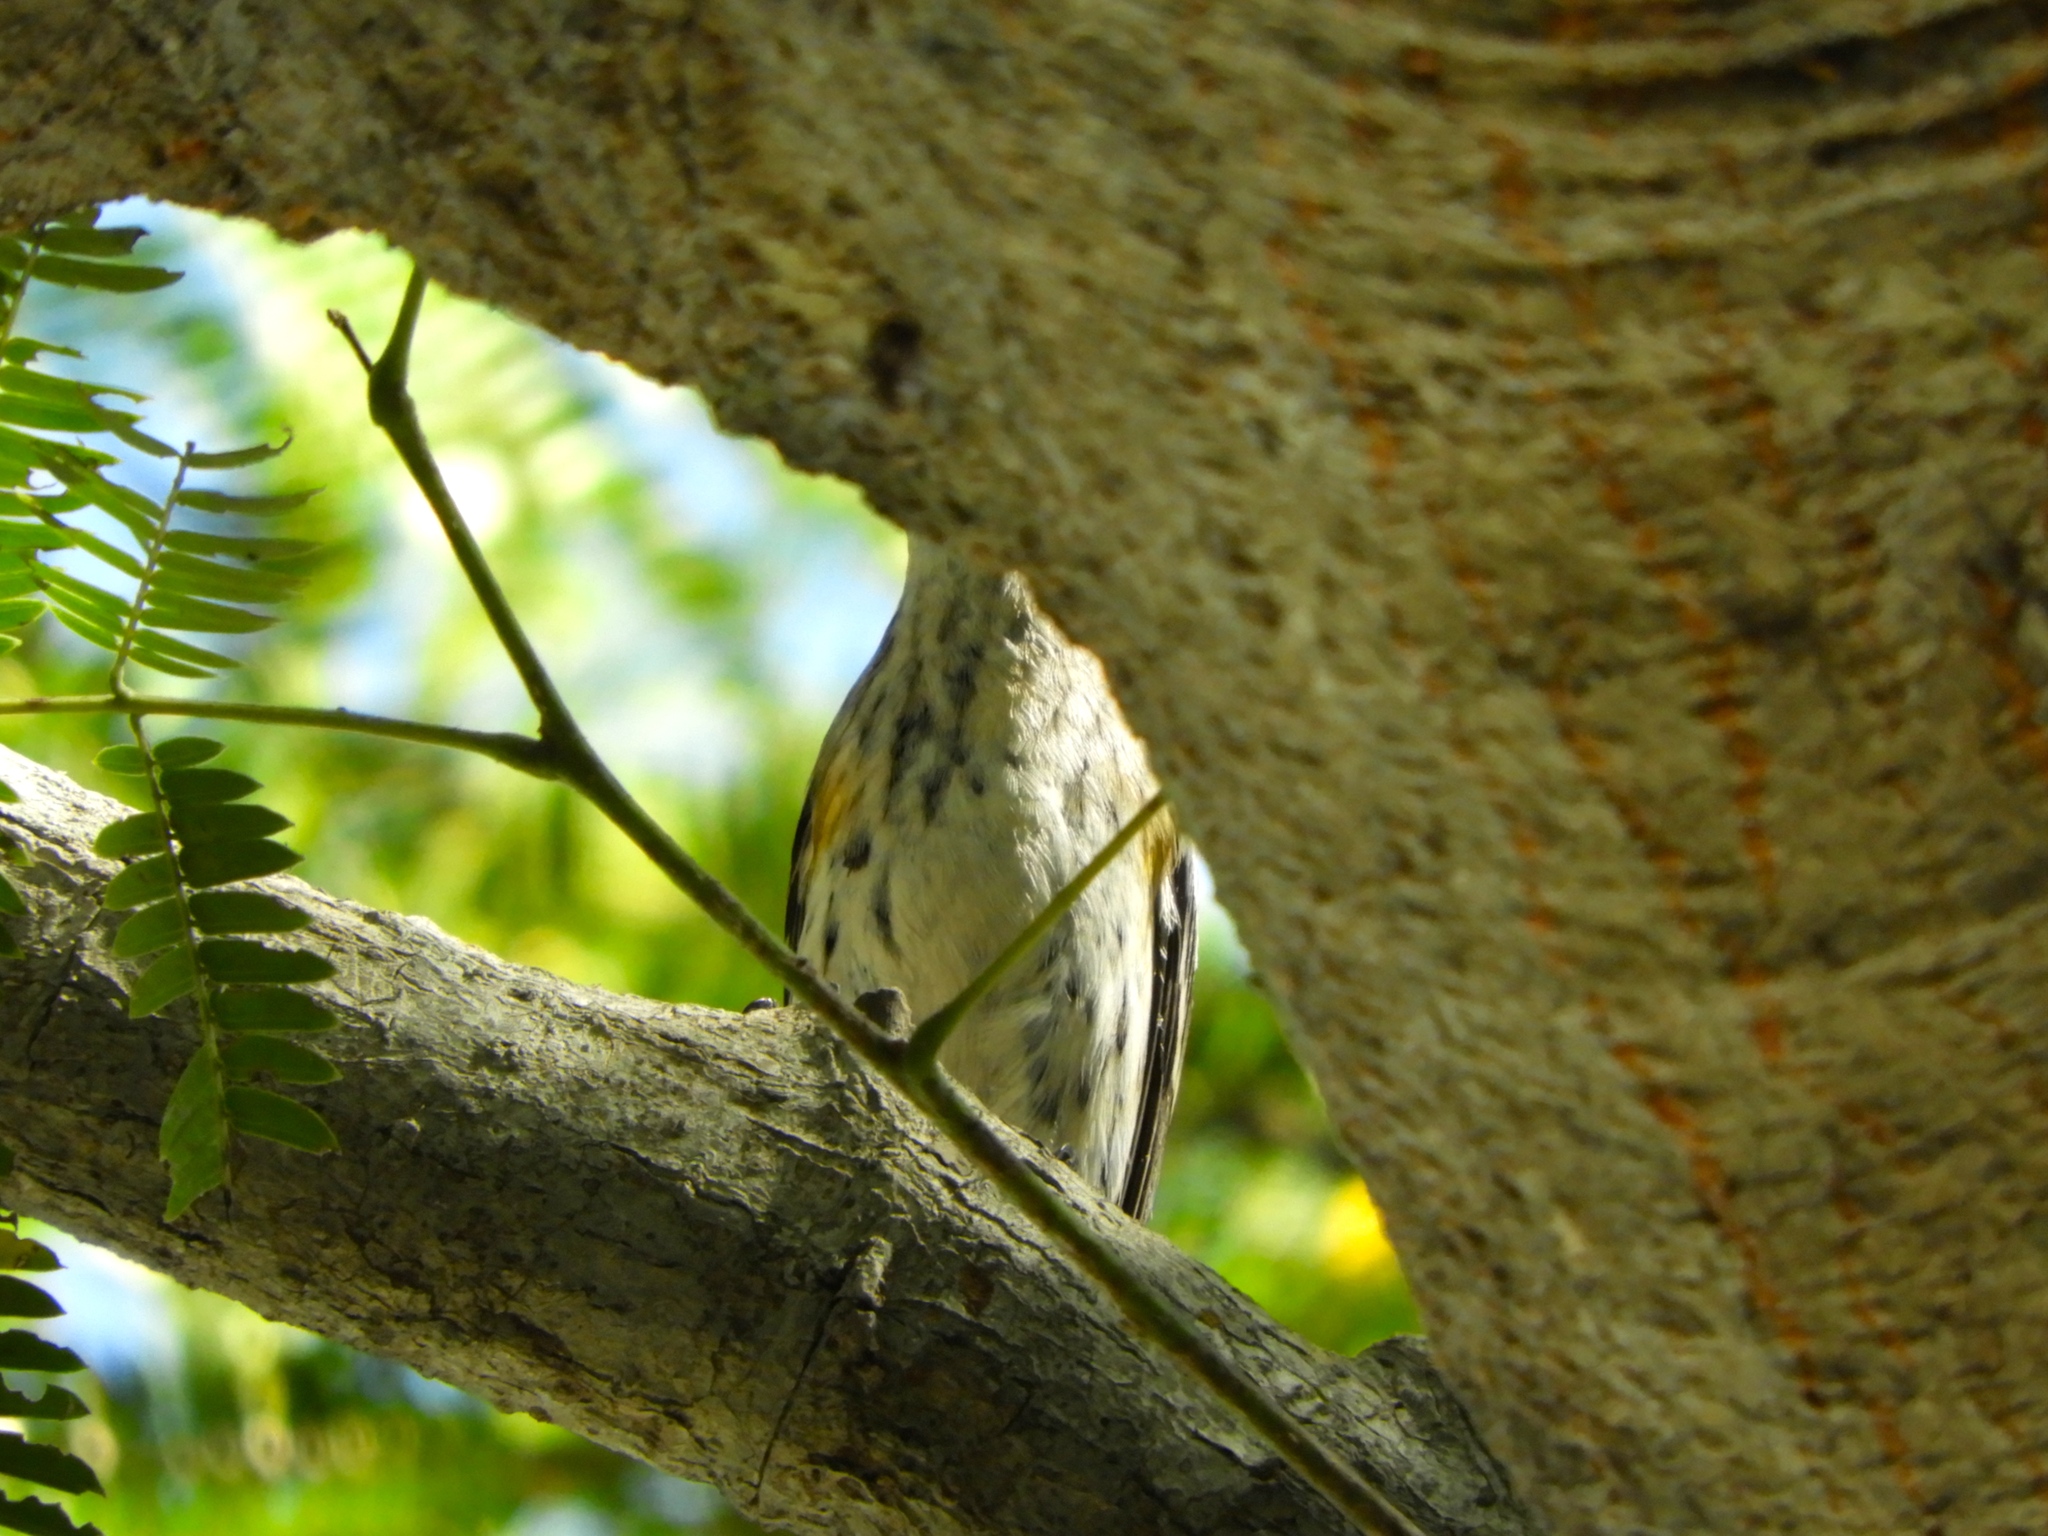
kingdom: Animalia
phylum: Chordata
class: Aves
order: Passeriformes
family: Parulidae
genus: Setophaga
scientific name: Setophaga coronata
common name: Myrtle warbler
